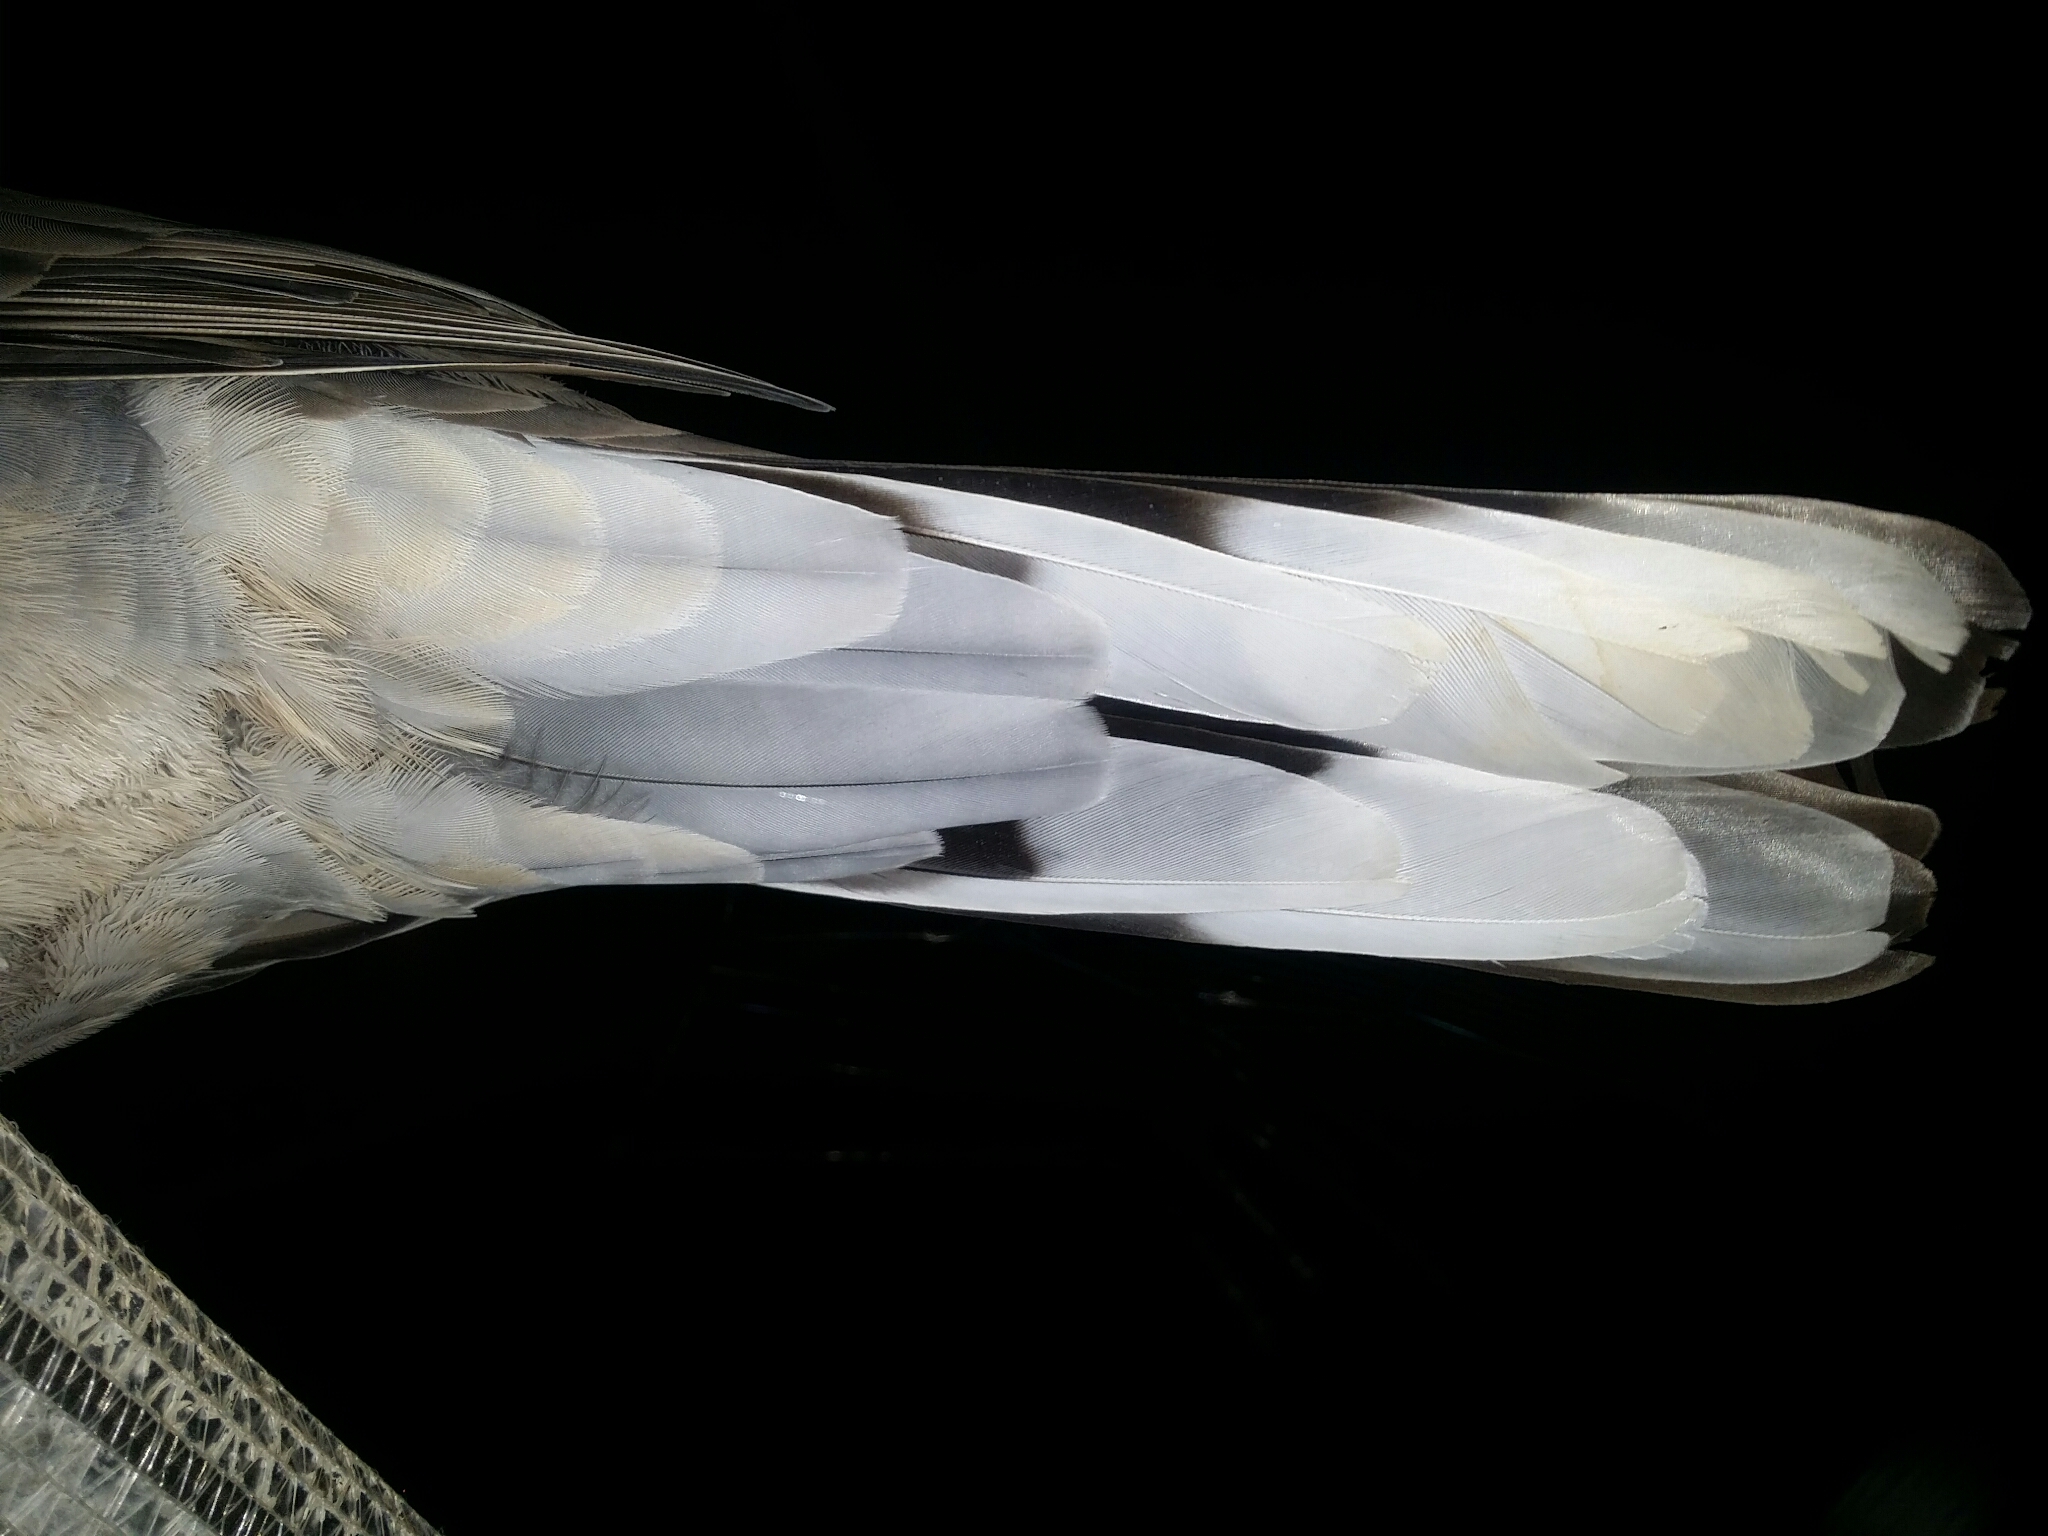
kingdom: Animalia
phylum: Chordata
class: Aves
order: Columbiformes
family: Columbidae
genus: Spilopelia
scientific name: Spilopelia chinensis
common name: Spotted dove
